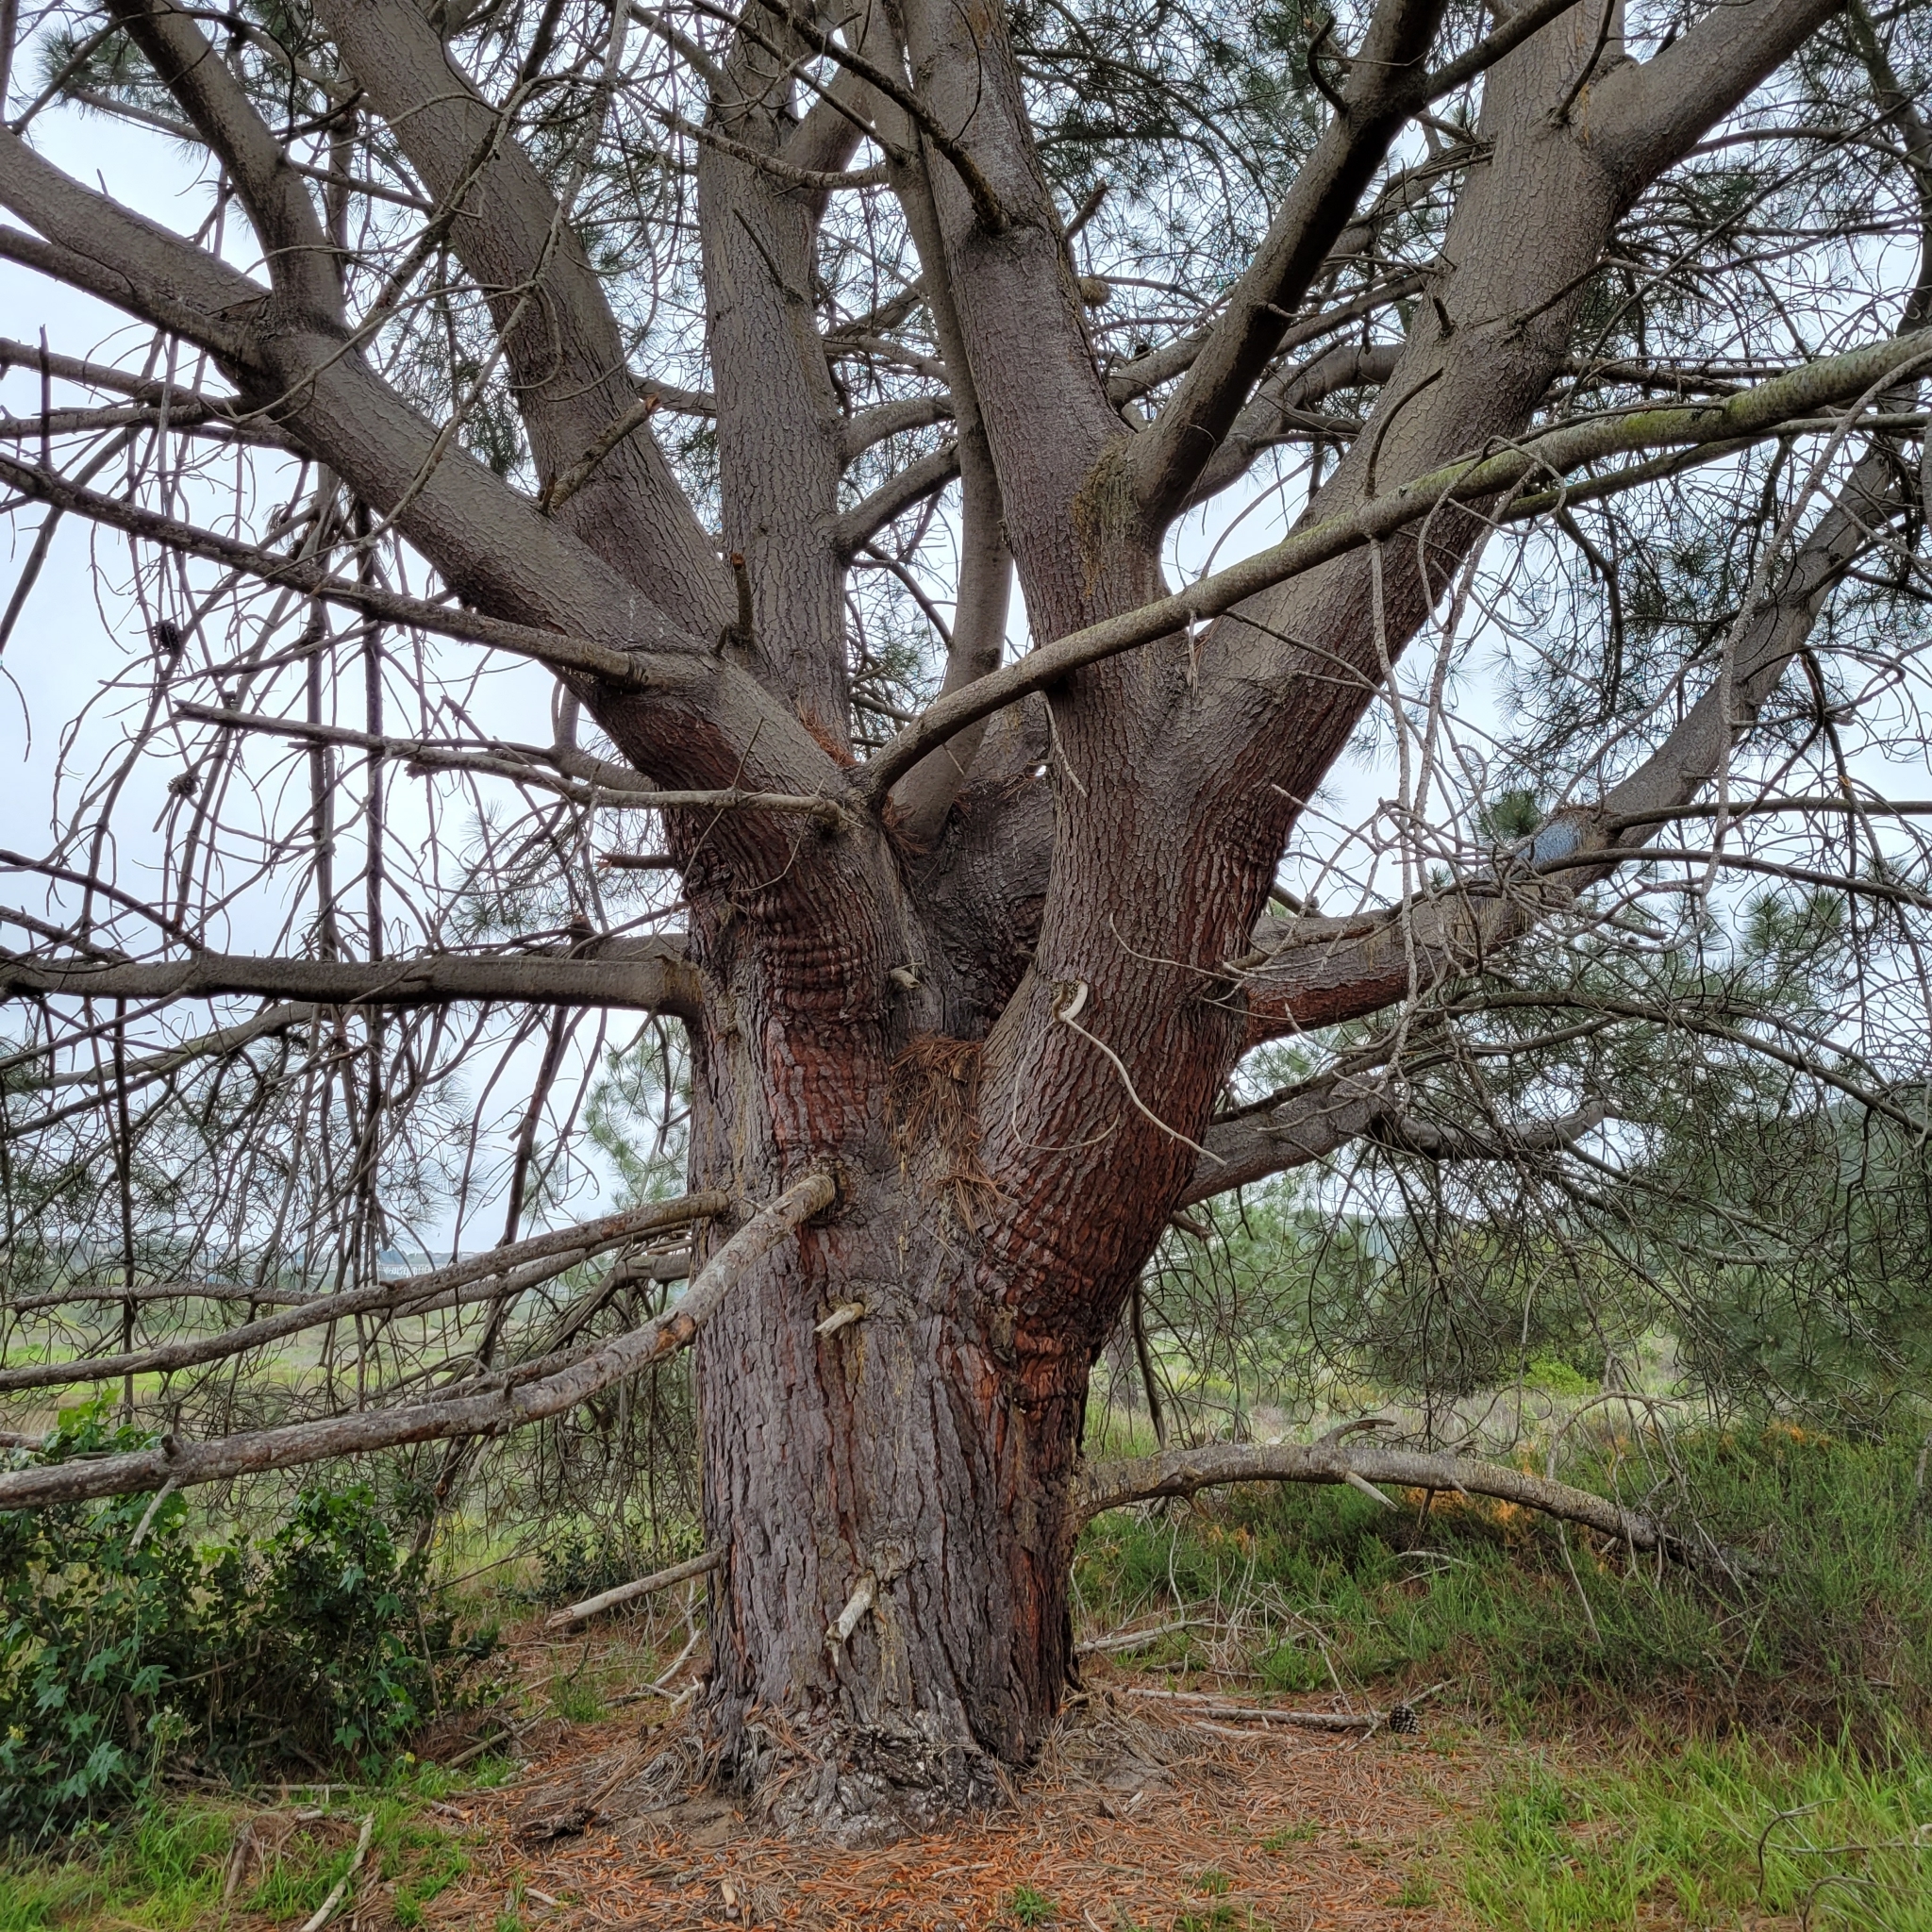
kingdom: Plantae
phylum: Tracheophyta
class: Pinopsida
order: Pinales
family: Pinaceae
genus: Pinus
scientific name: Pinus torreyana
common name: Torrey pine
